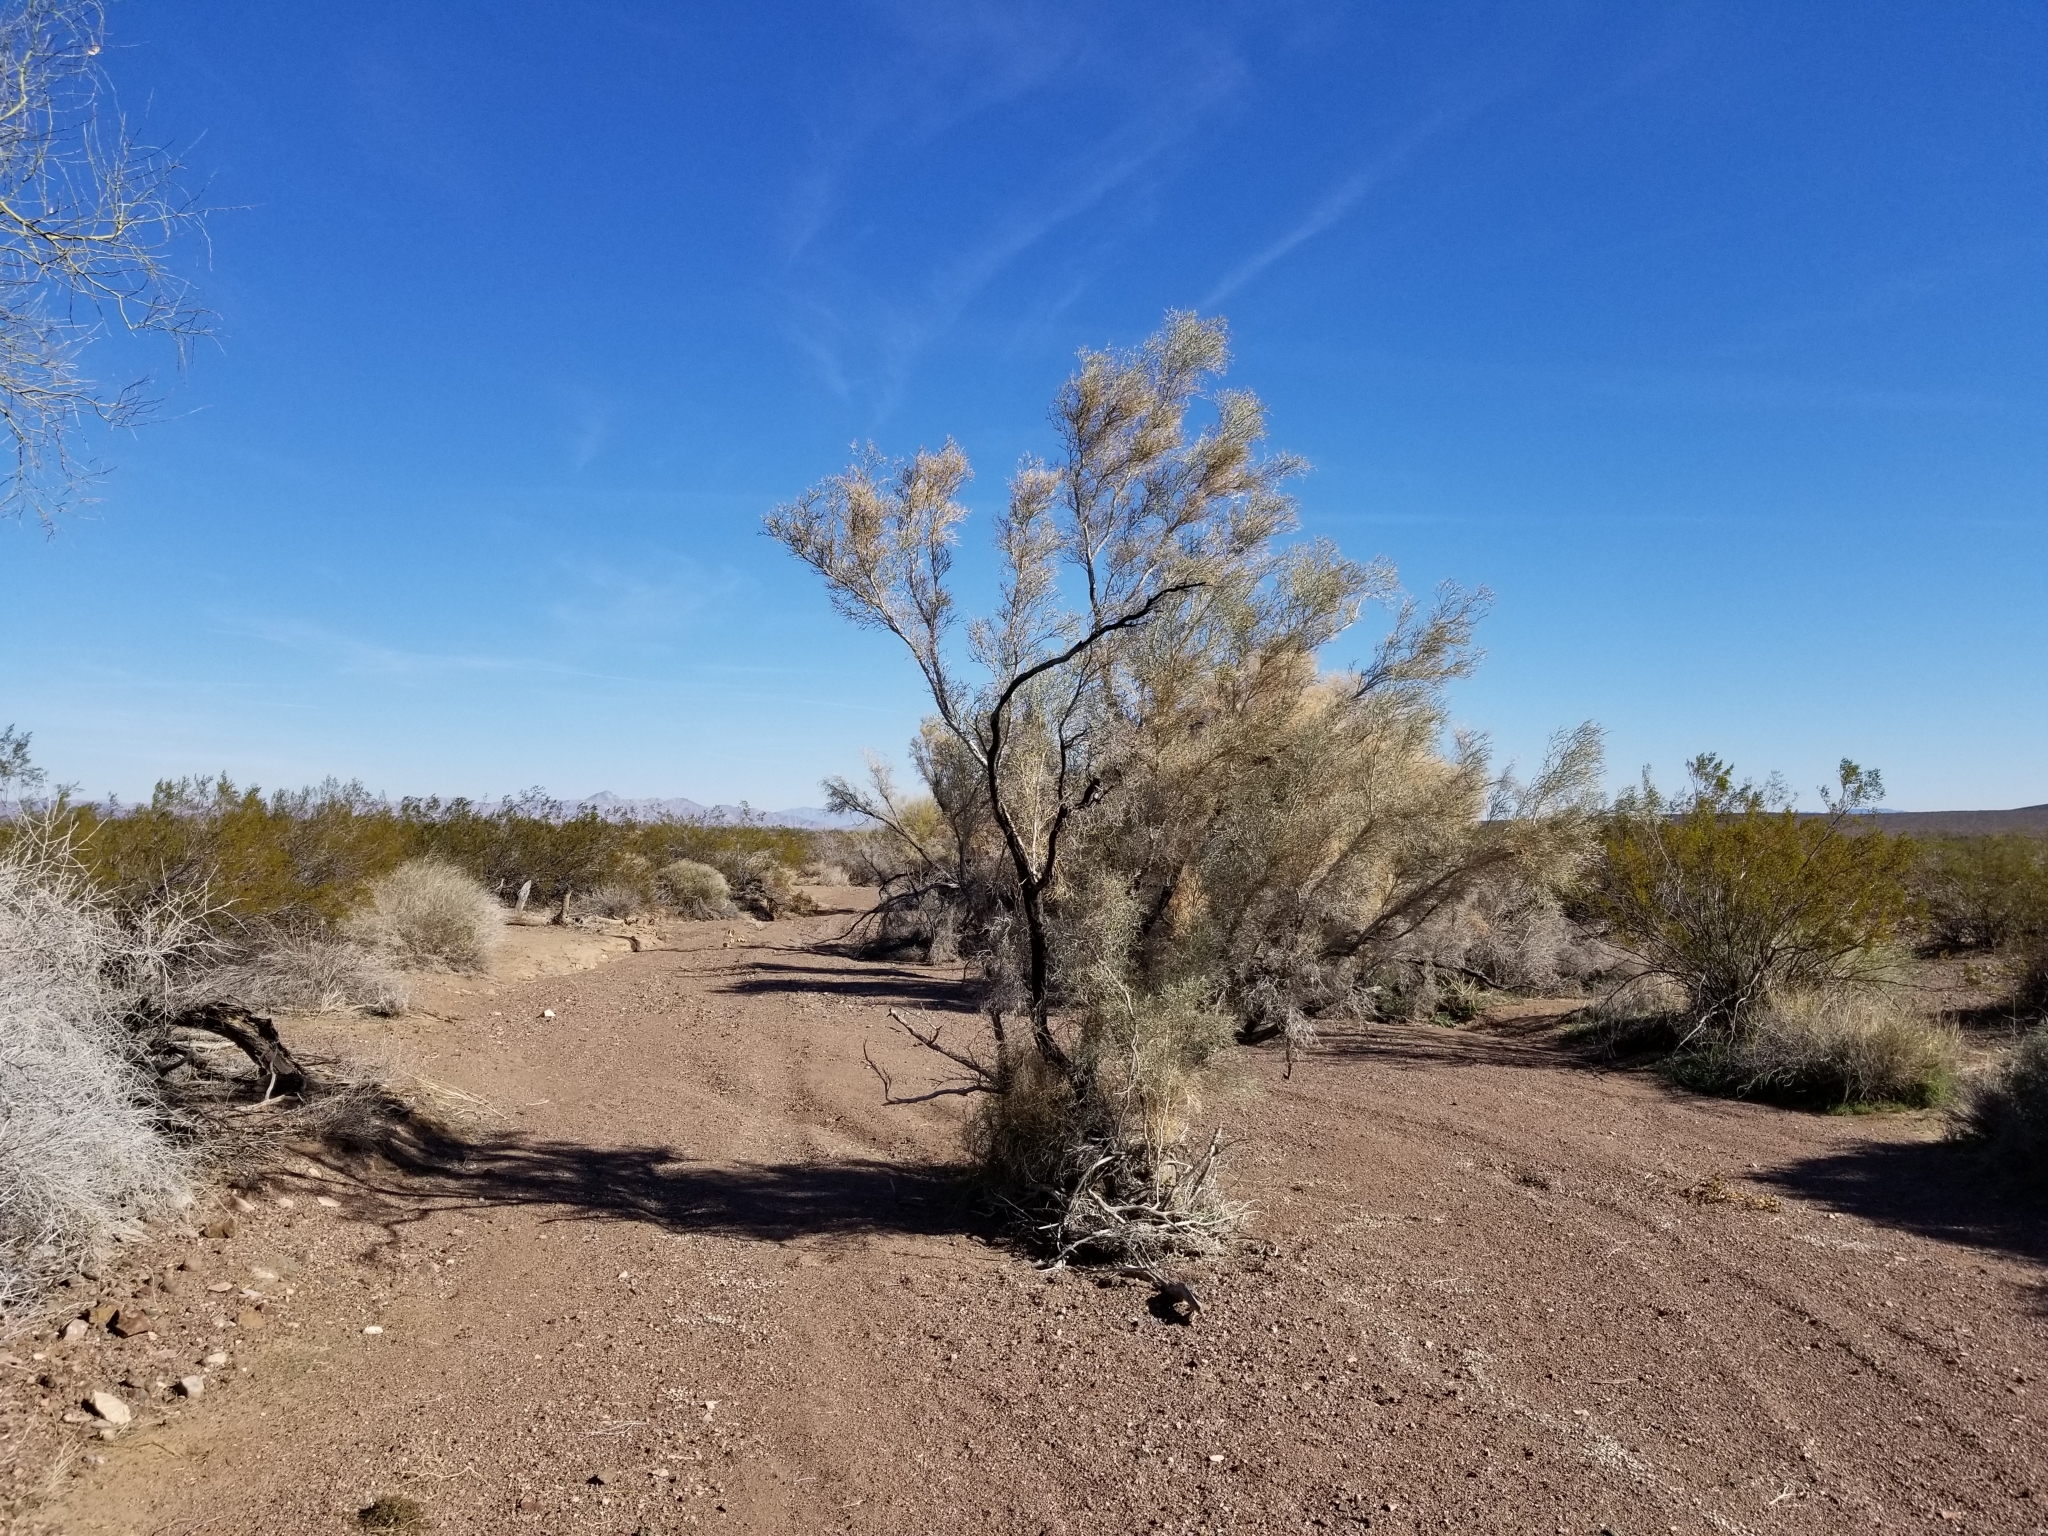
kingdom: Plantae
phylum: Tracheophyta
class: Magnoliopsida
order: Fabales
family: Fabaceae
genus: Psorothamnus
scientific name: Psorothamnus spinosus
